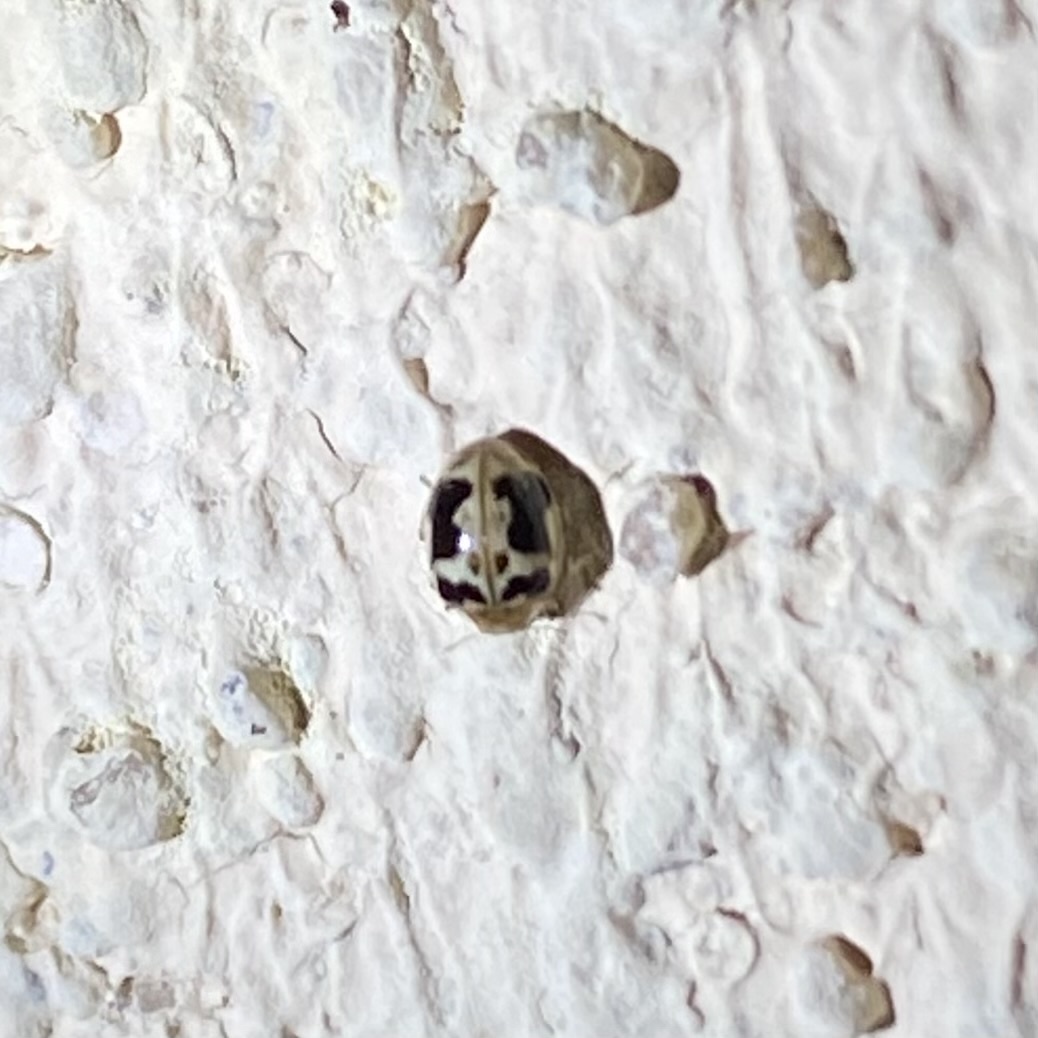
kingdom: Animalia
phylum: Arthropoda
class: Insecta
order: Coleoptera
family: Coccinellidae
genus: Psyllobora
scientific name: Psyllobora renifer
